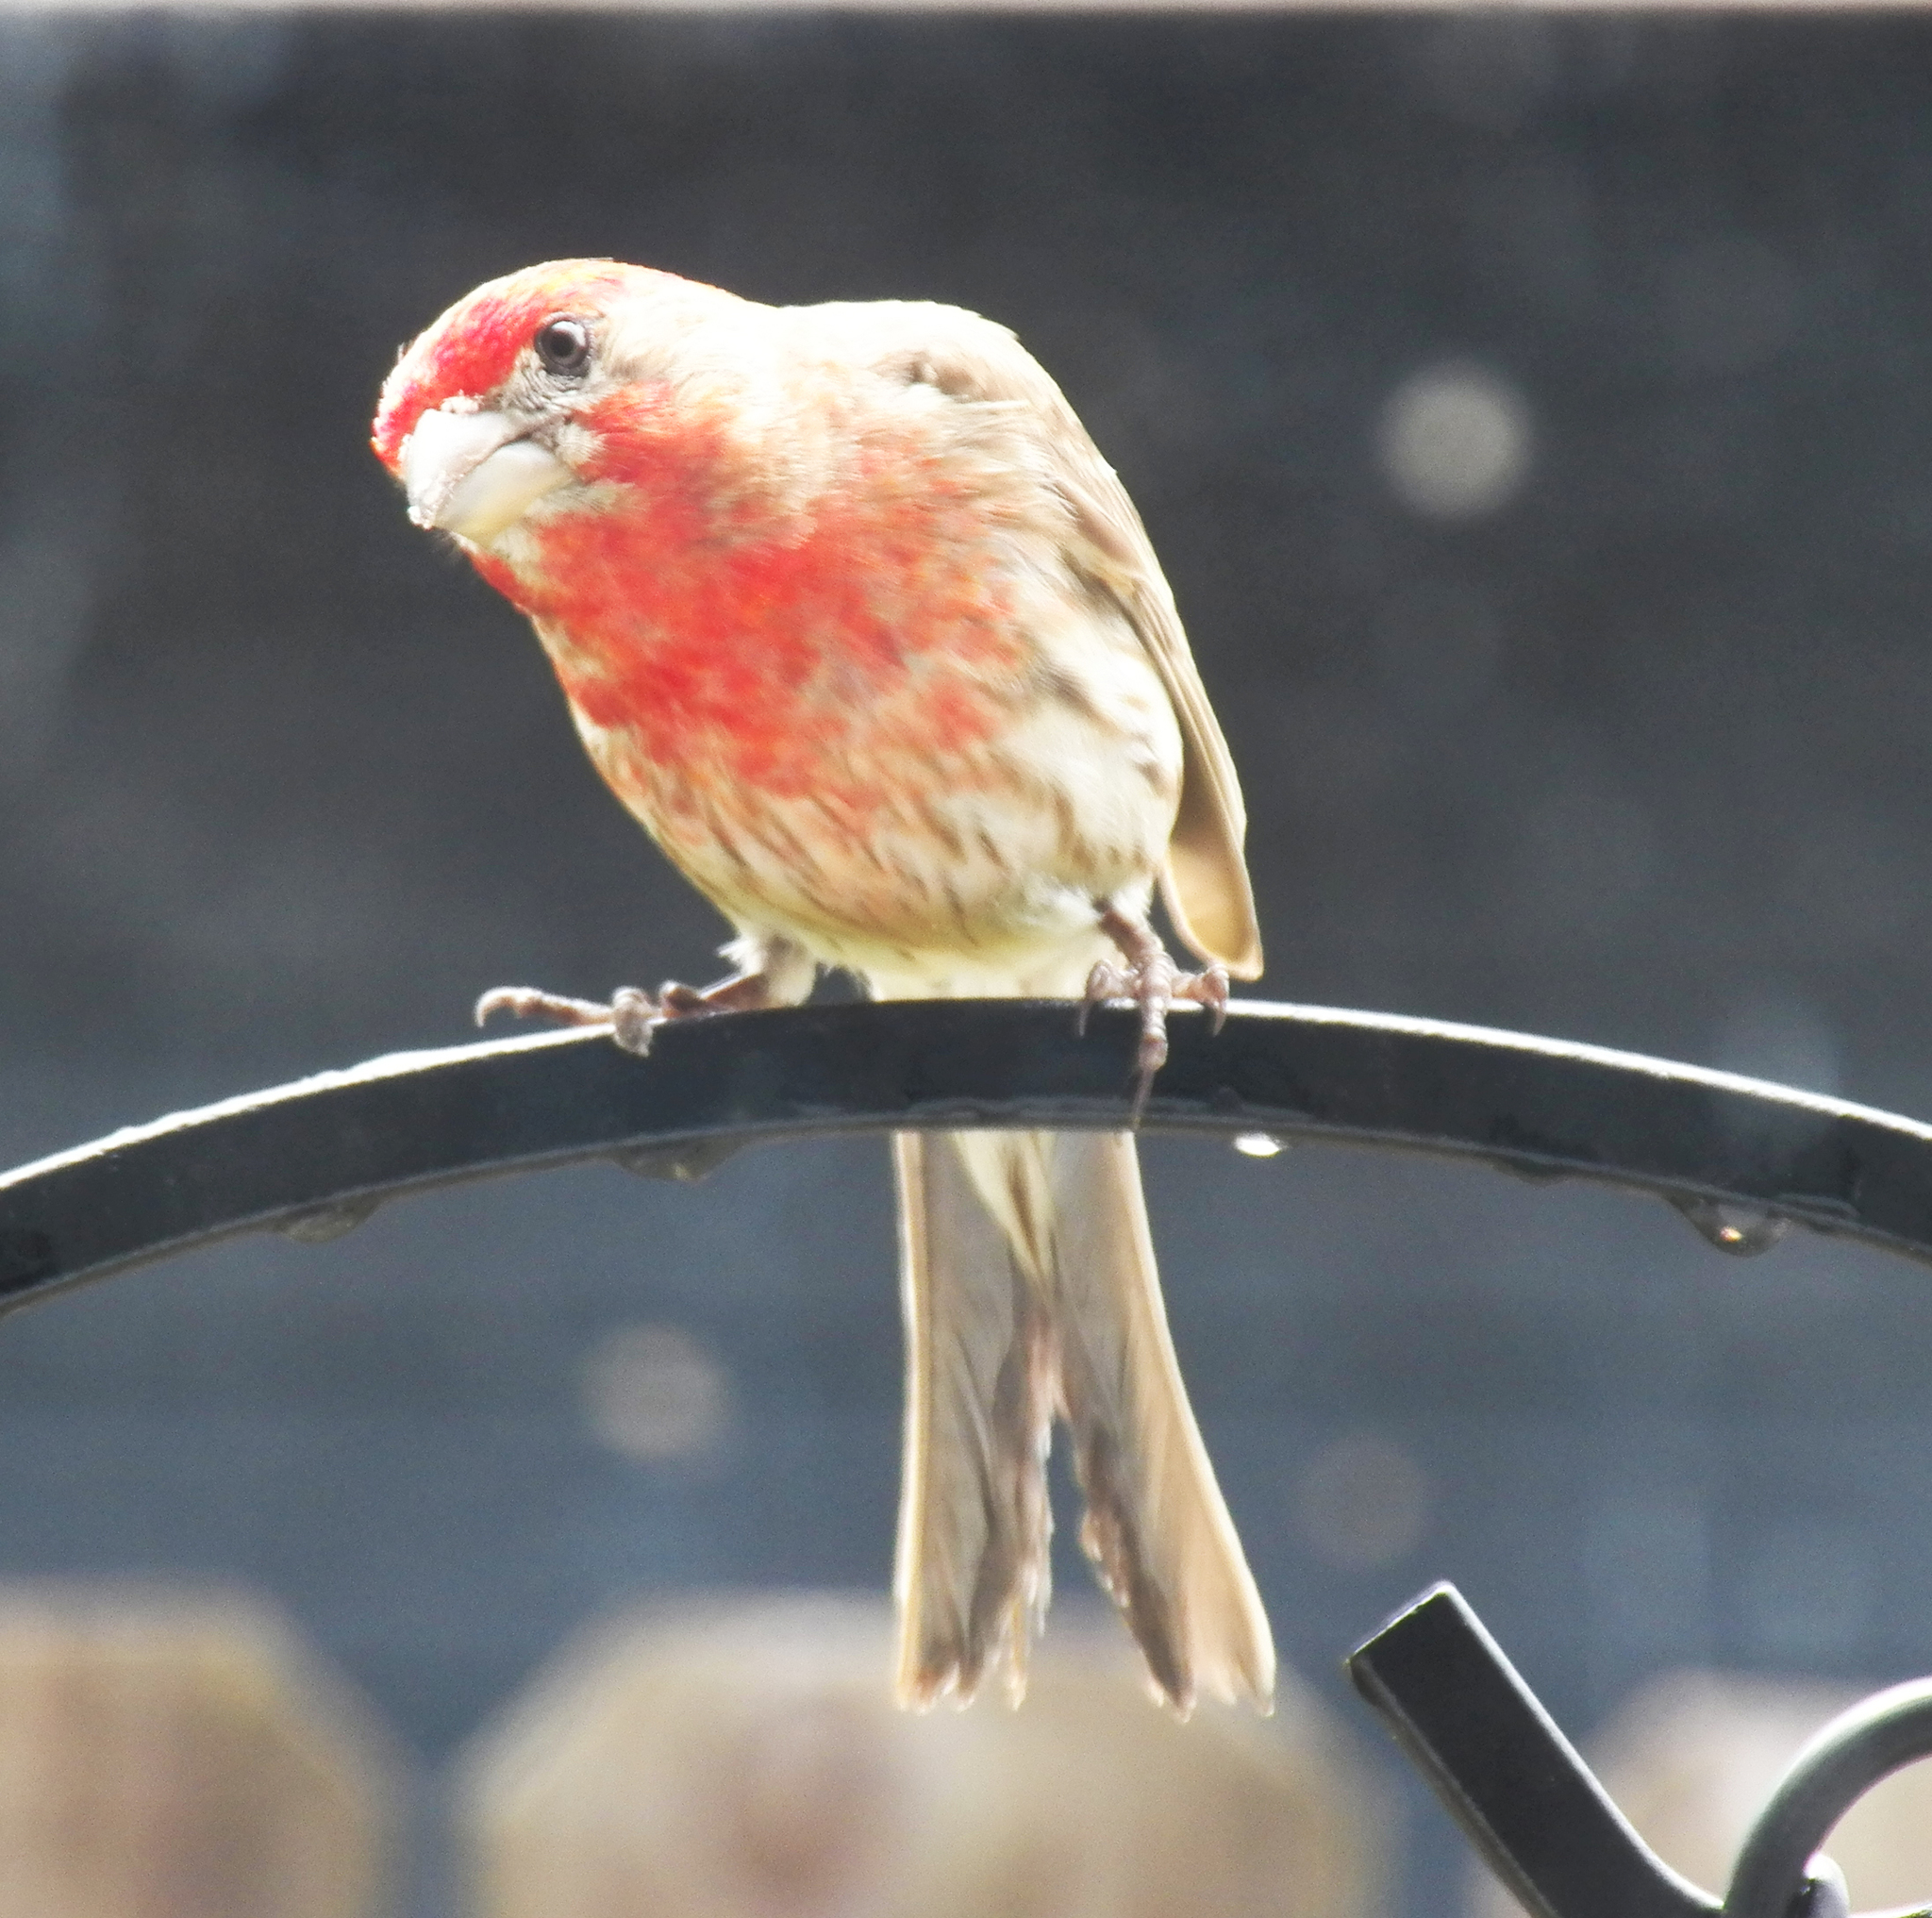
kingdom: Animalia
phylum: Chordata
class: Aves
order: Passeriformes
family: Fringillidae
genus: Haemorhous
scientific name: Haemorhous mexicanus
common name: House finch
